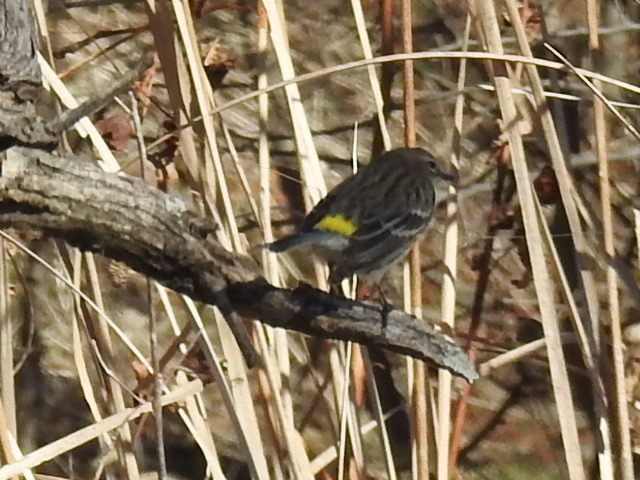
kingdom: Animalia
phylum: Chordata
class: Aves
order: Passeriformes
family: Parulidae
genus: Setophaga
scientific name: Setophaga coronata
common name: Myrtle warbler
